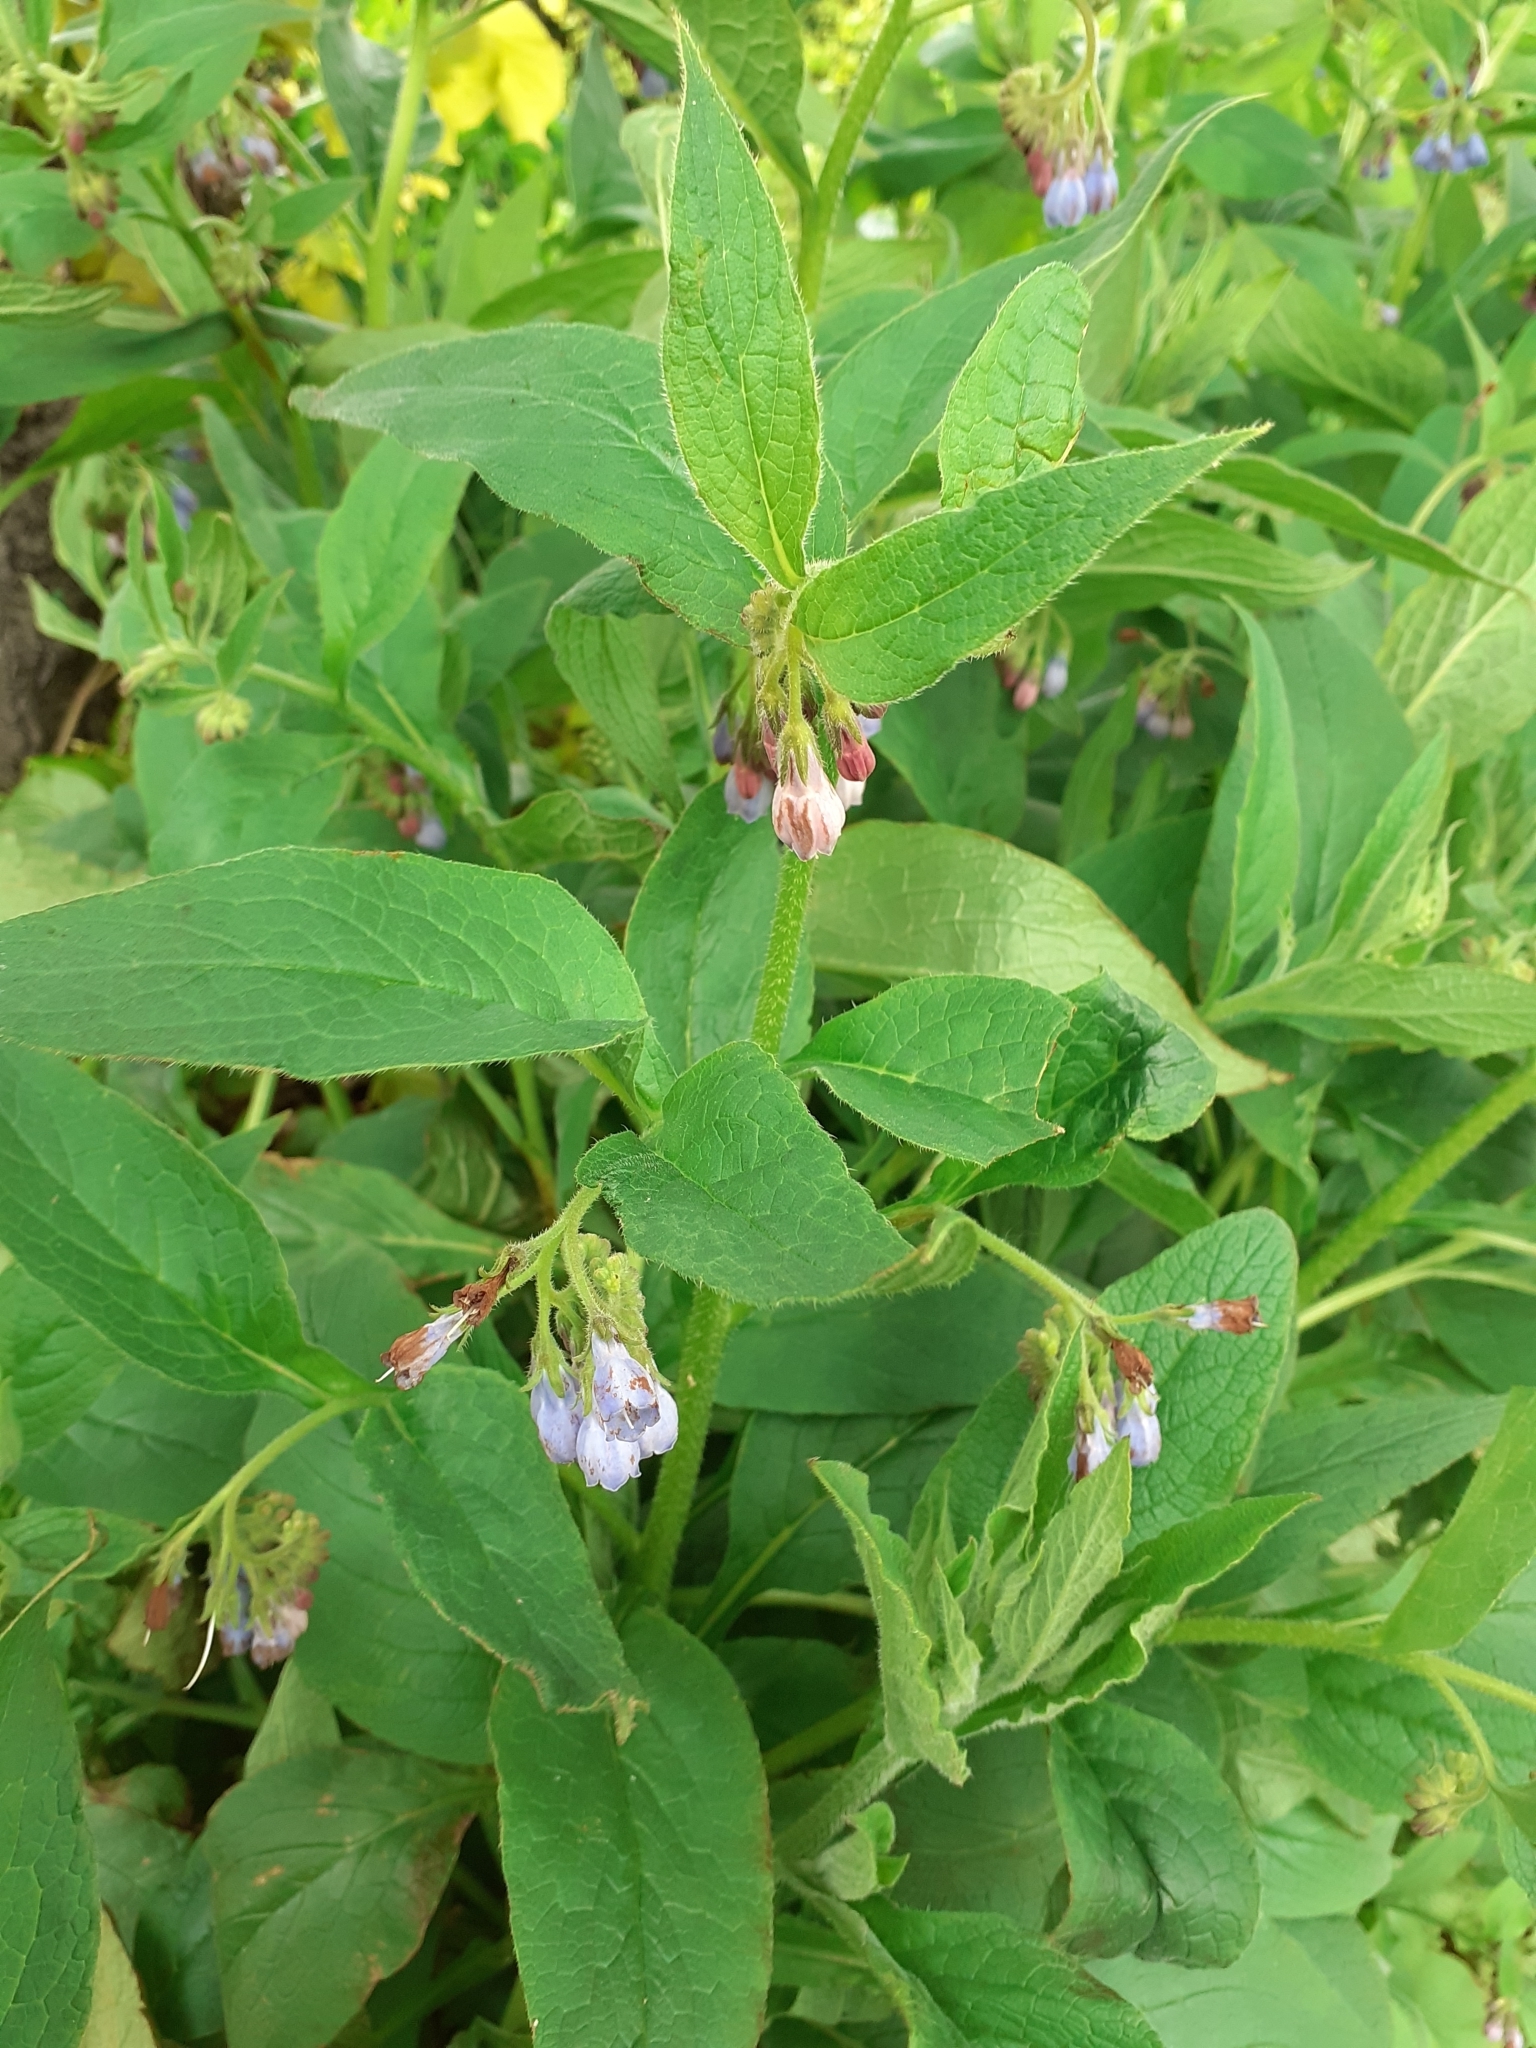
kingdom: Plantae
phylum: Tracheophyta
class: Magnoliopsida
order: Boraginales
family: Boraginaceae
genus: Symphytum
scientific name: Symphytum uplandicum
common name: Russian comfrey
